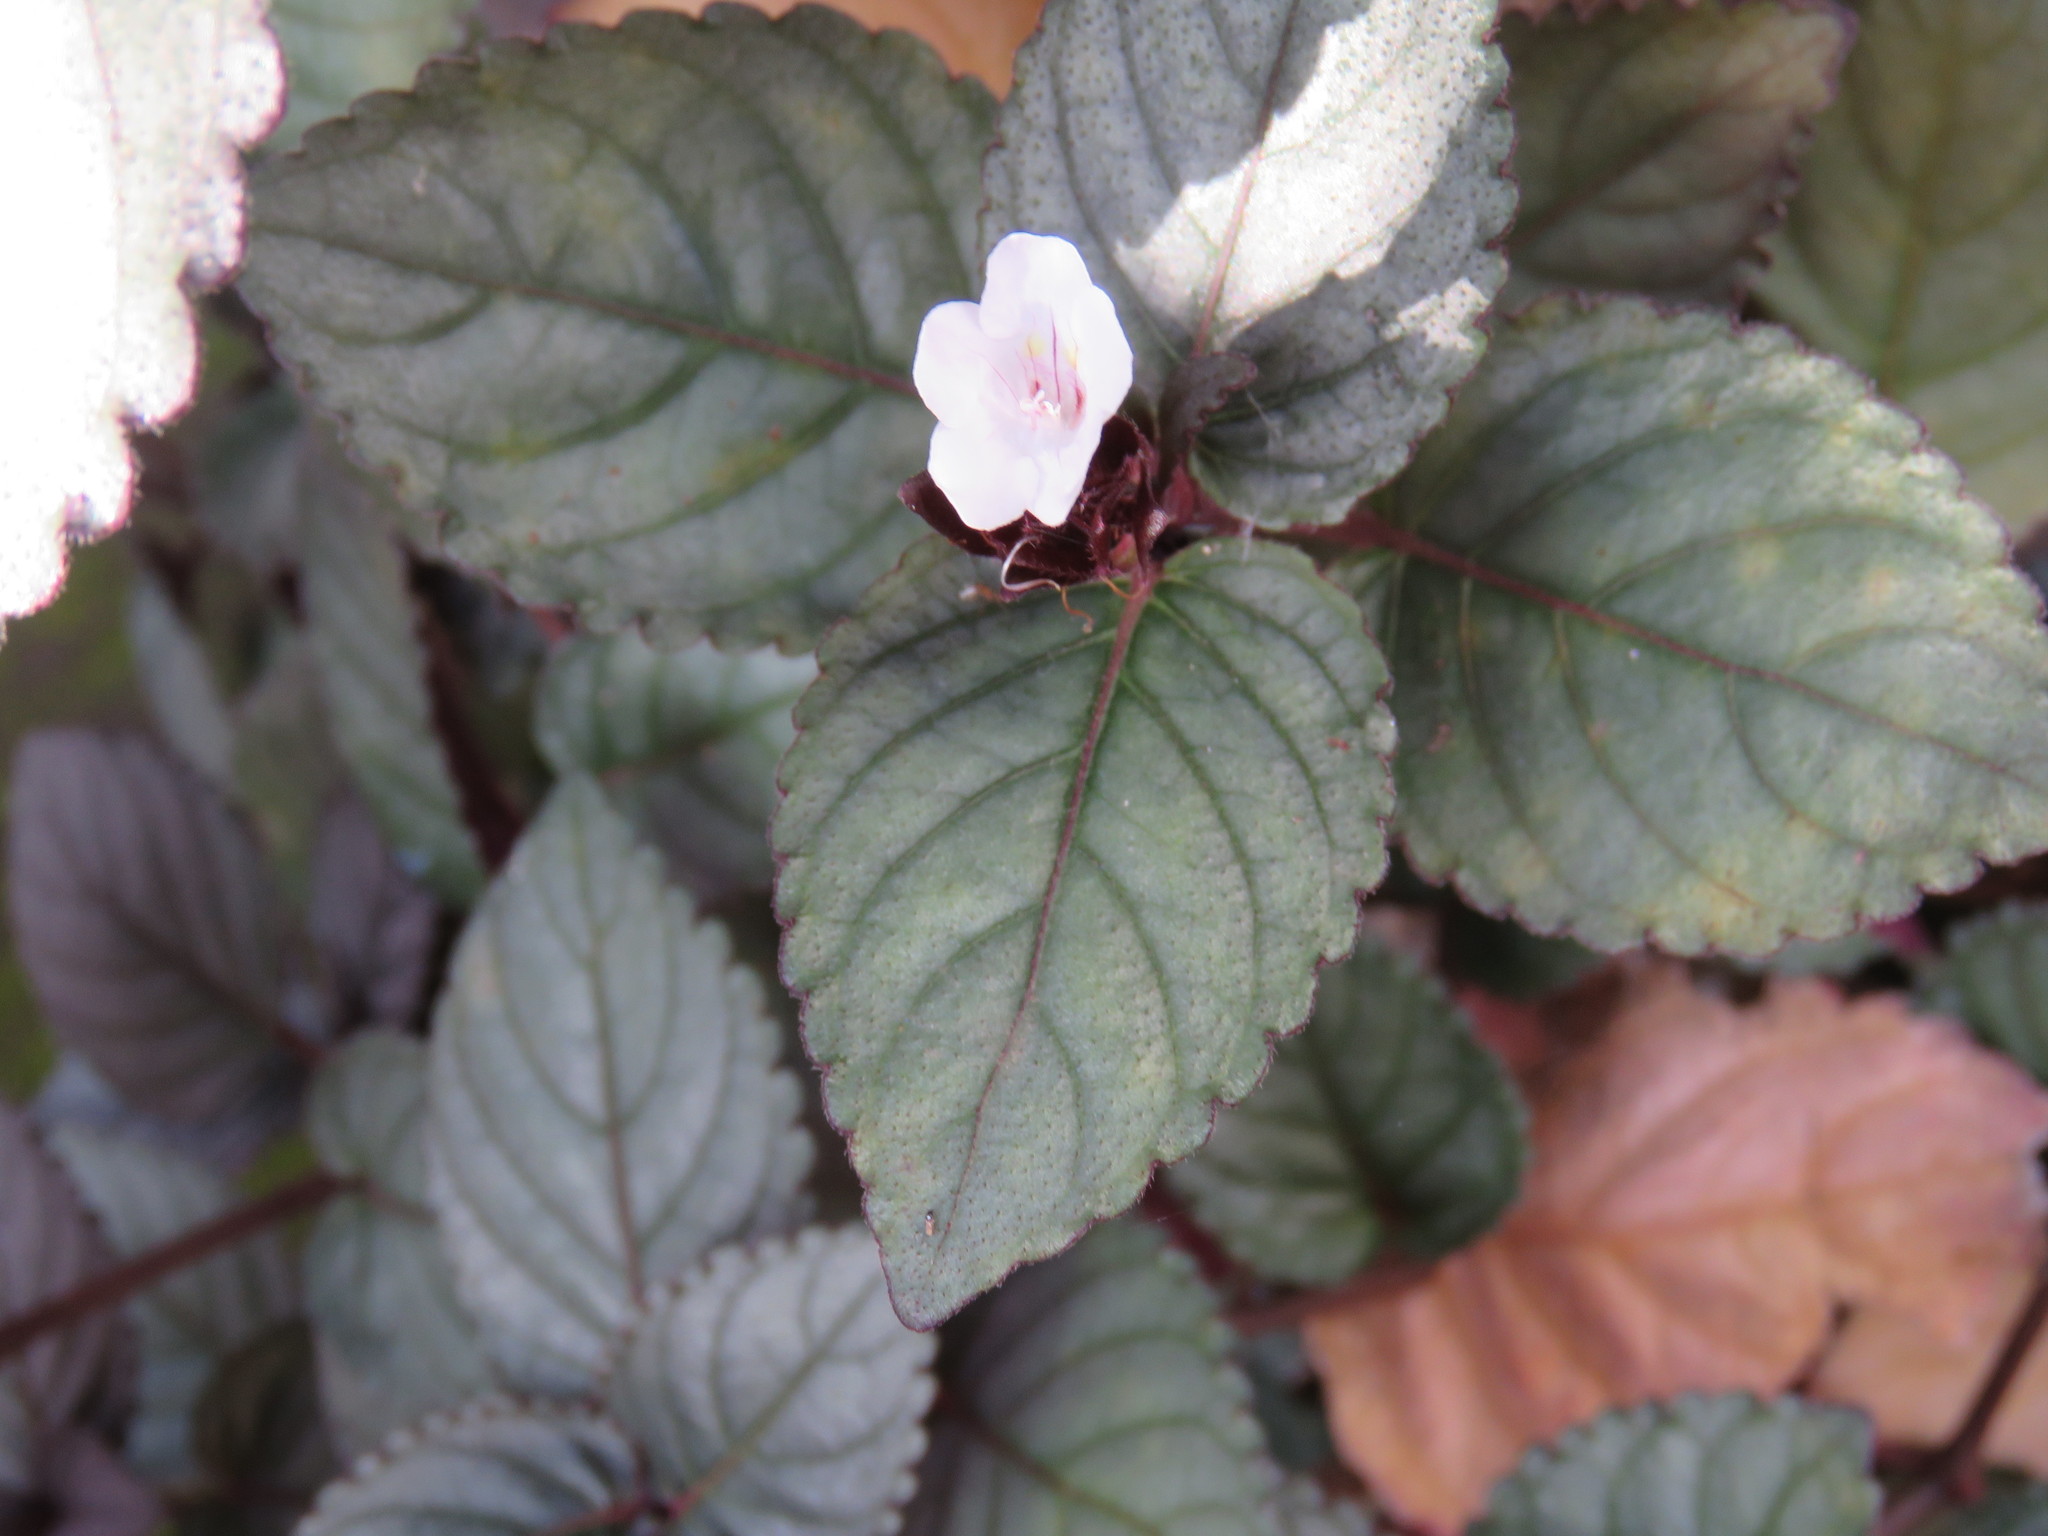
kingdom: Plantae
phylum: Tracheophyta
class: Magnoliopsida
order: Lamiales
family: Acanthaceae
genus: Strobilanthes
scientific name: Strobilanthes alternata
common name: Red ivy
